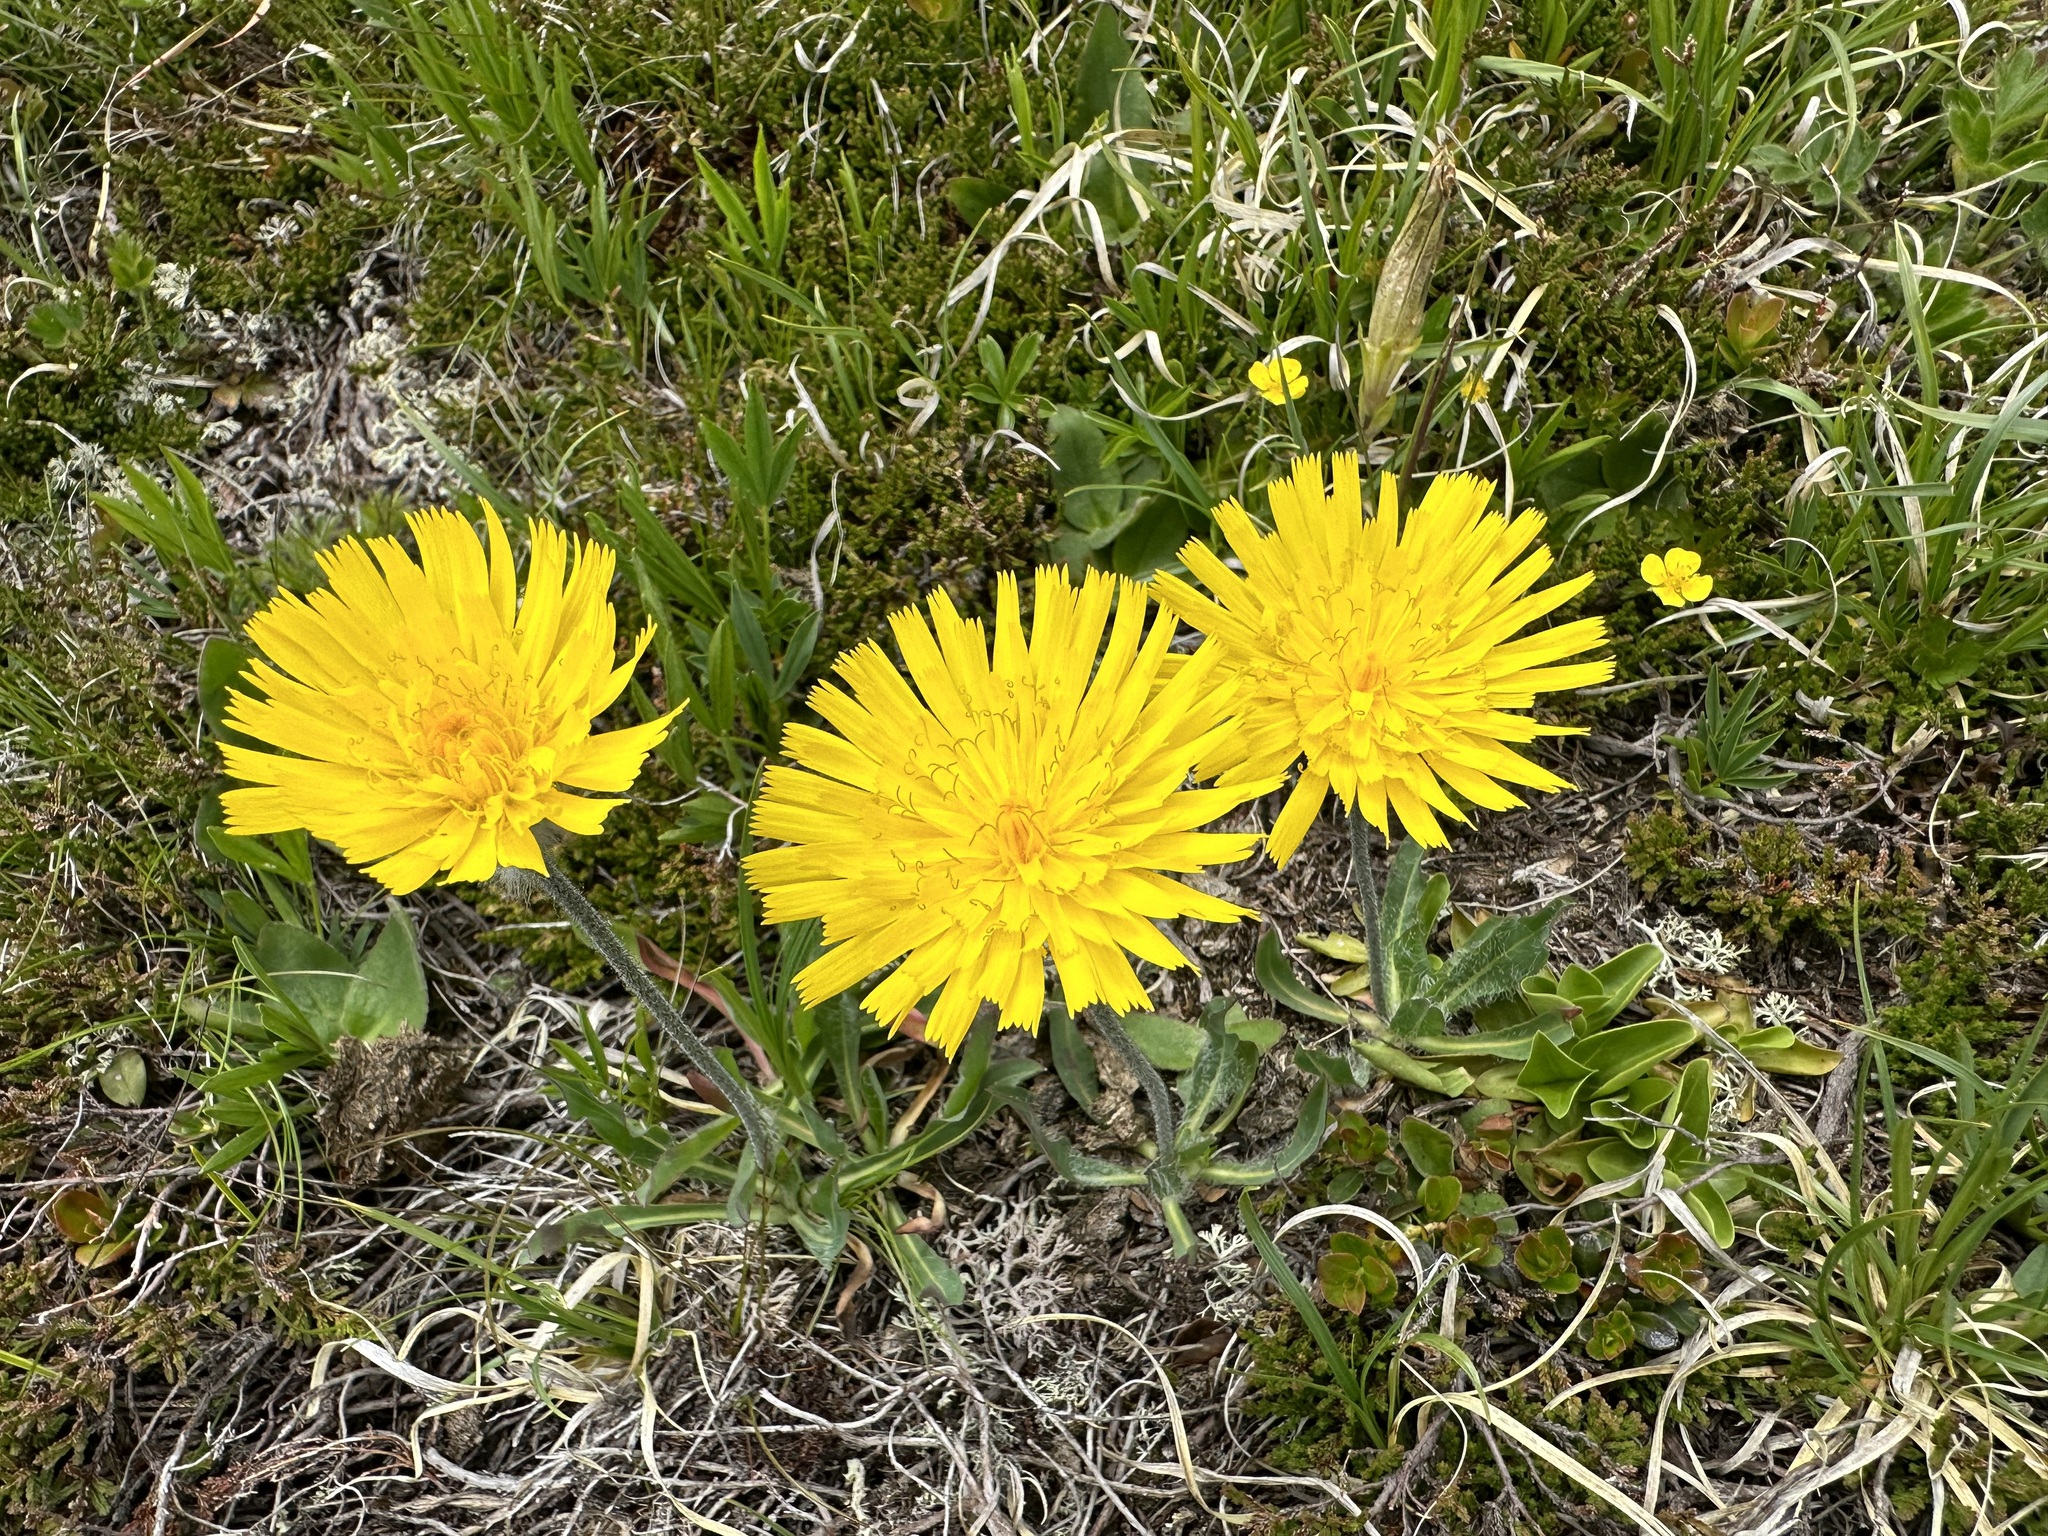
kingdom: Plantae
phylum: Tracheophyta
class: Magnoliopsida
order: Asterales
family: Asteraceae
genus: Hieracium
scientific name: Hieracium piliferum
